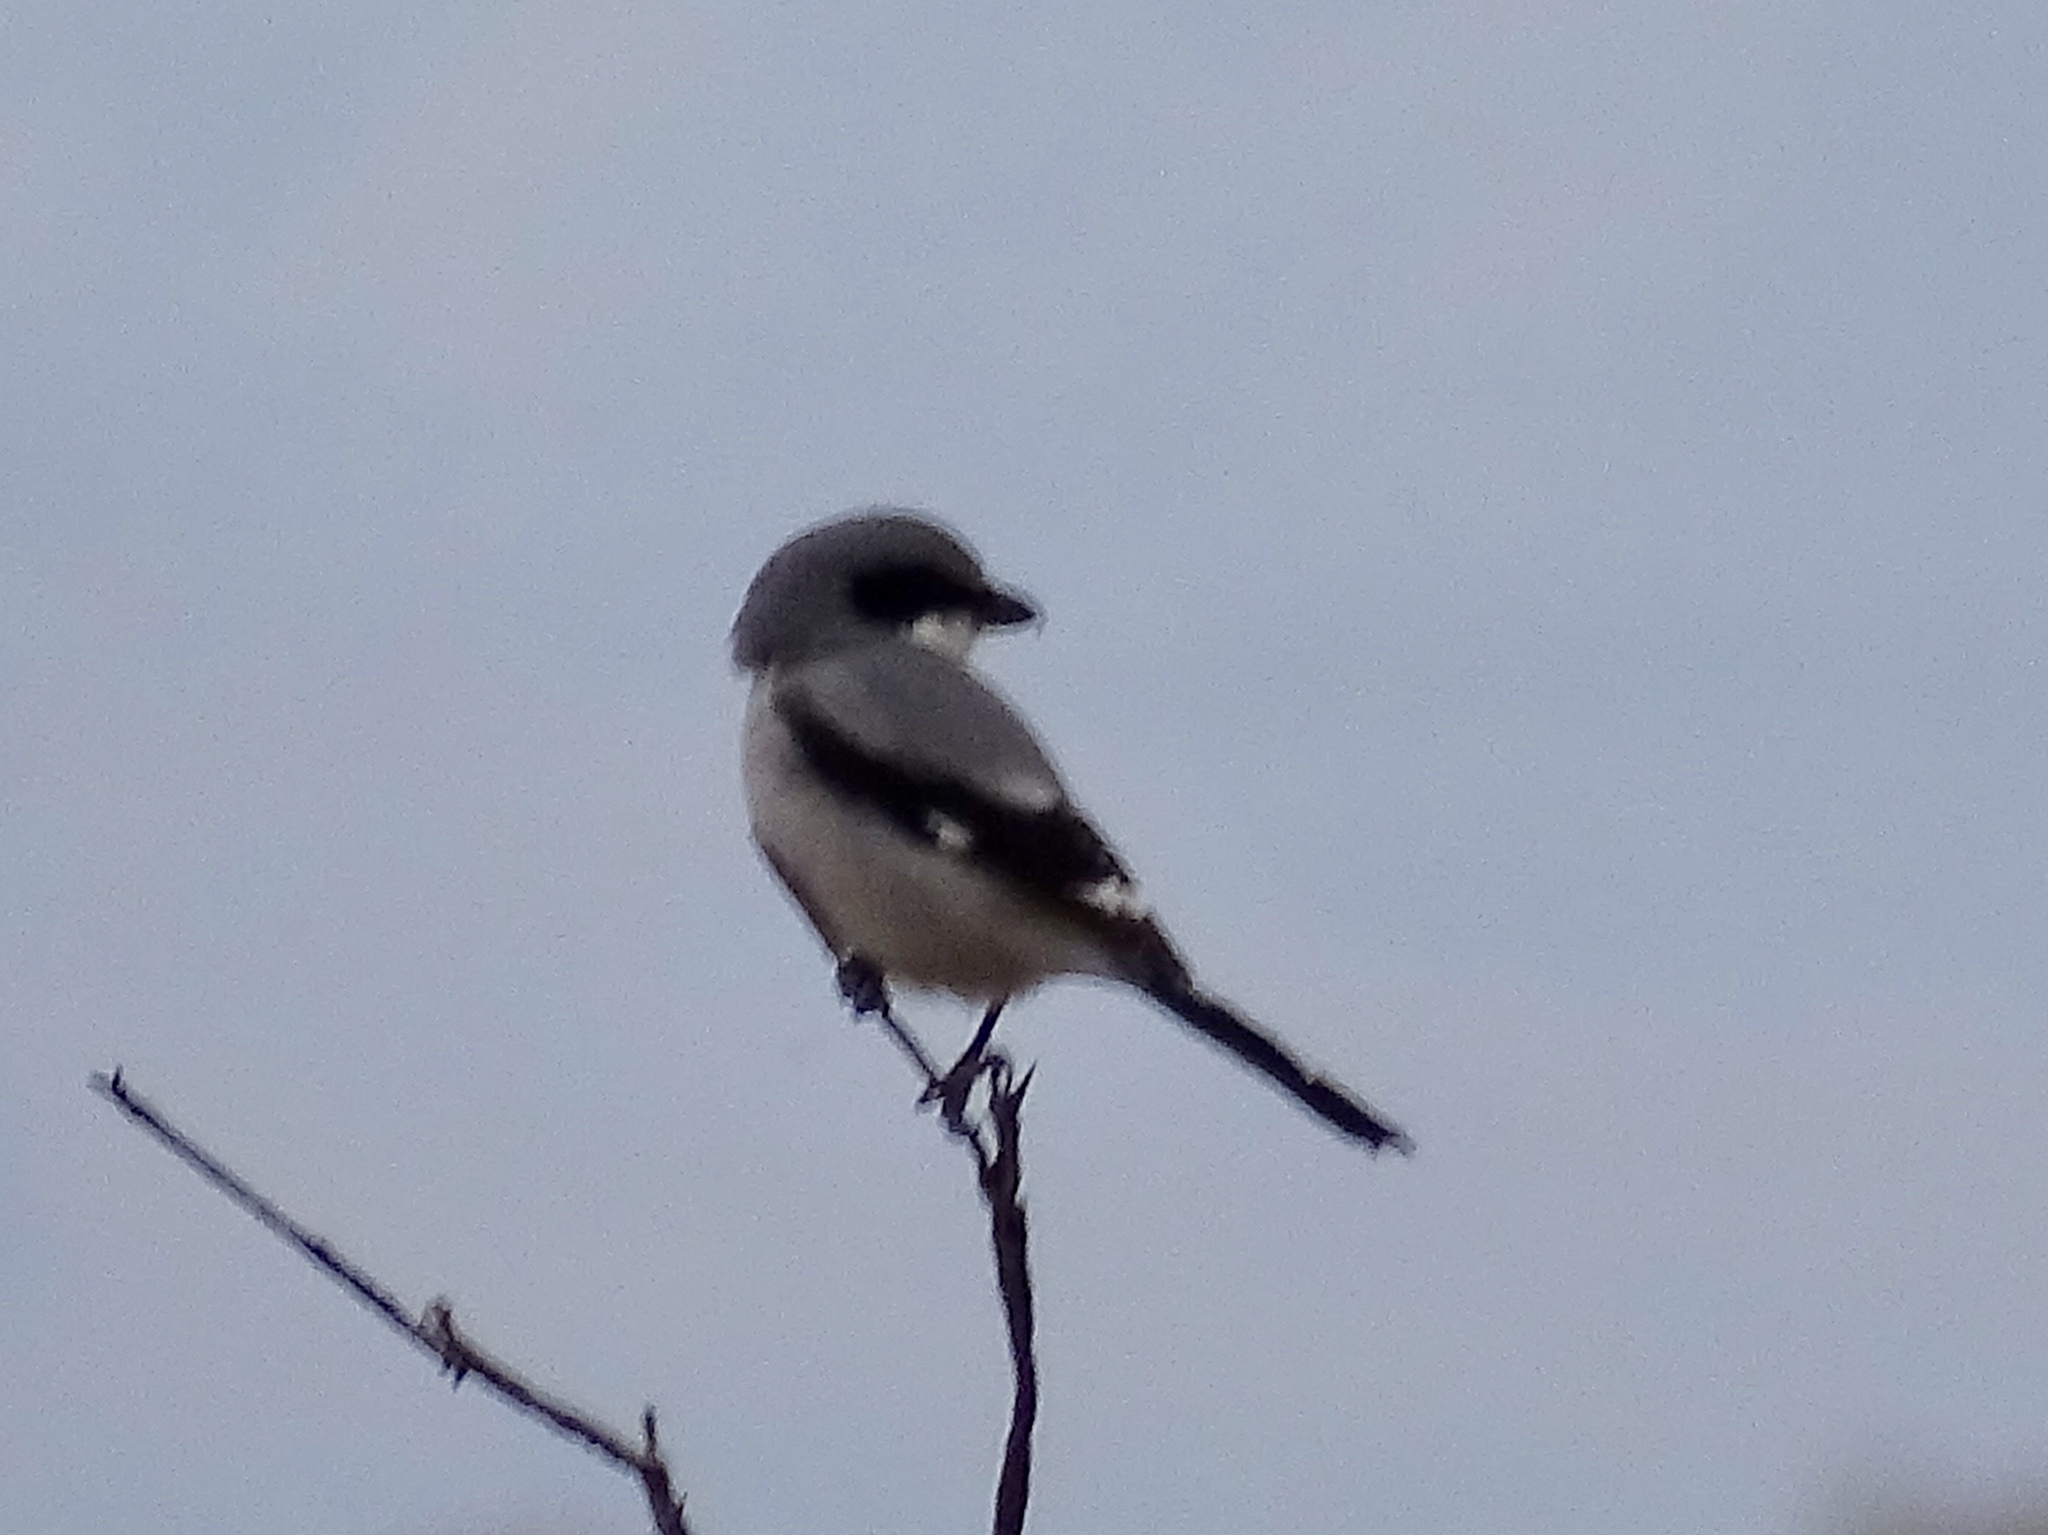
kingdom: Animalia
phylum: Chordata
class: Aves
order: Passeriformes
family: Laniidae
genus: Lanius
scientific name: Lanius ludovicianus
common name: Loggerhead shrike
